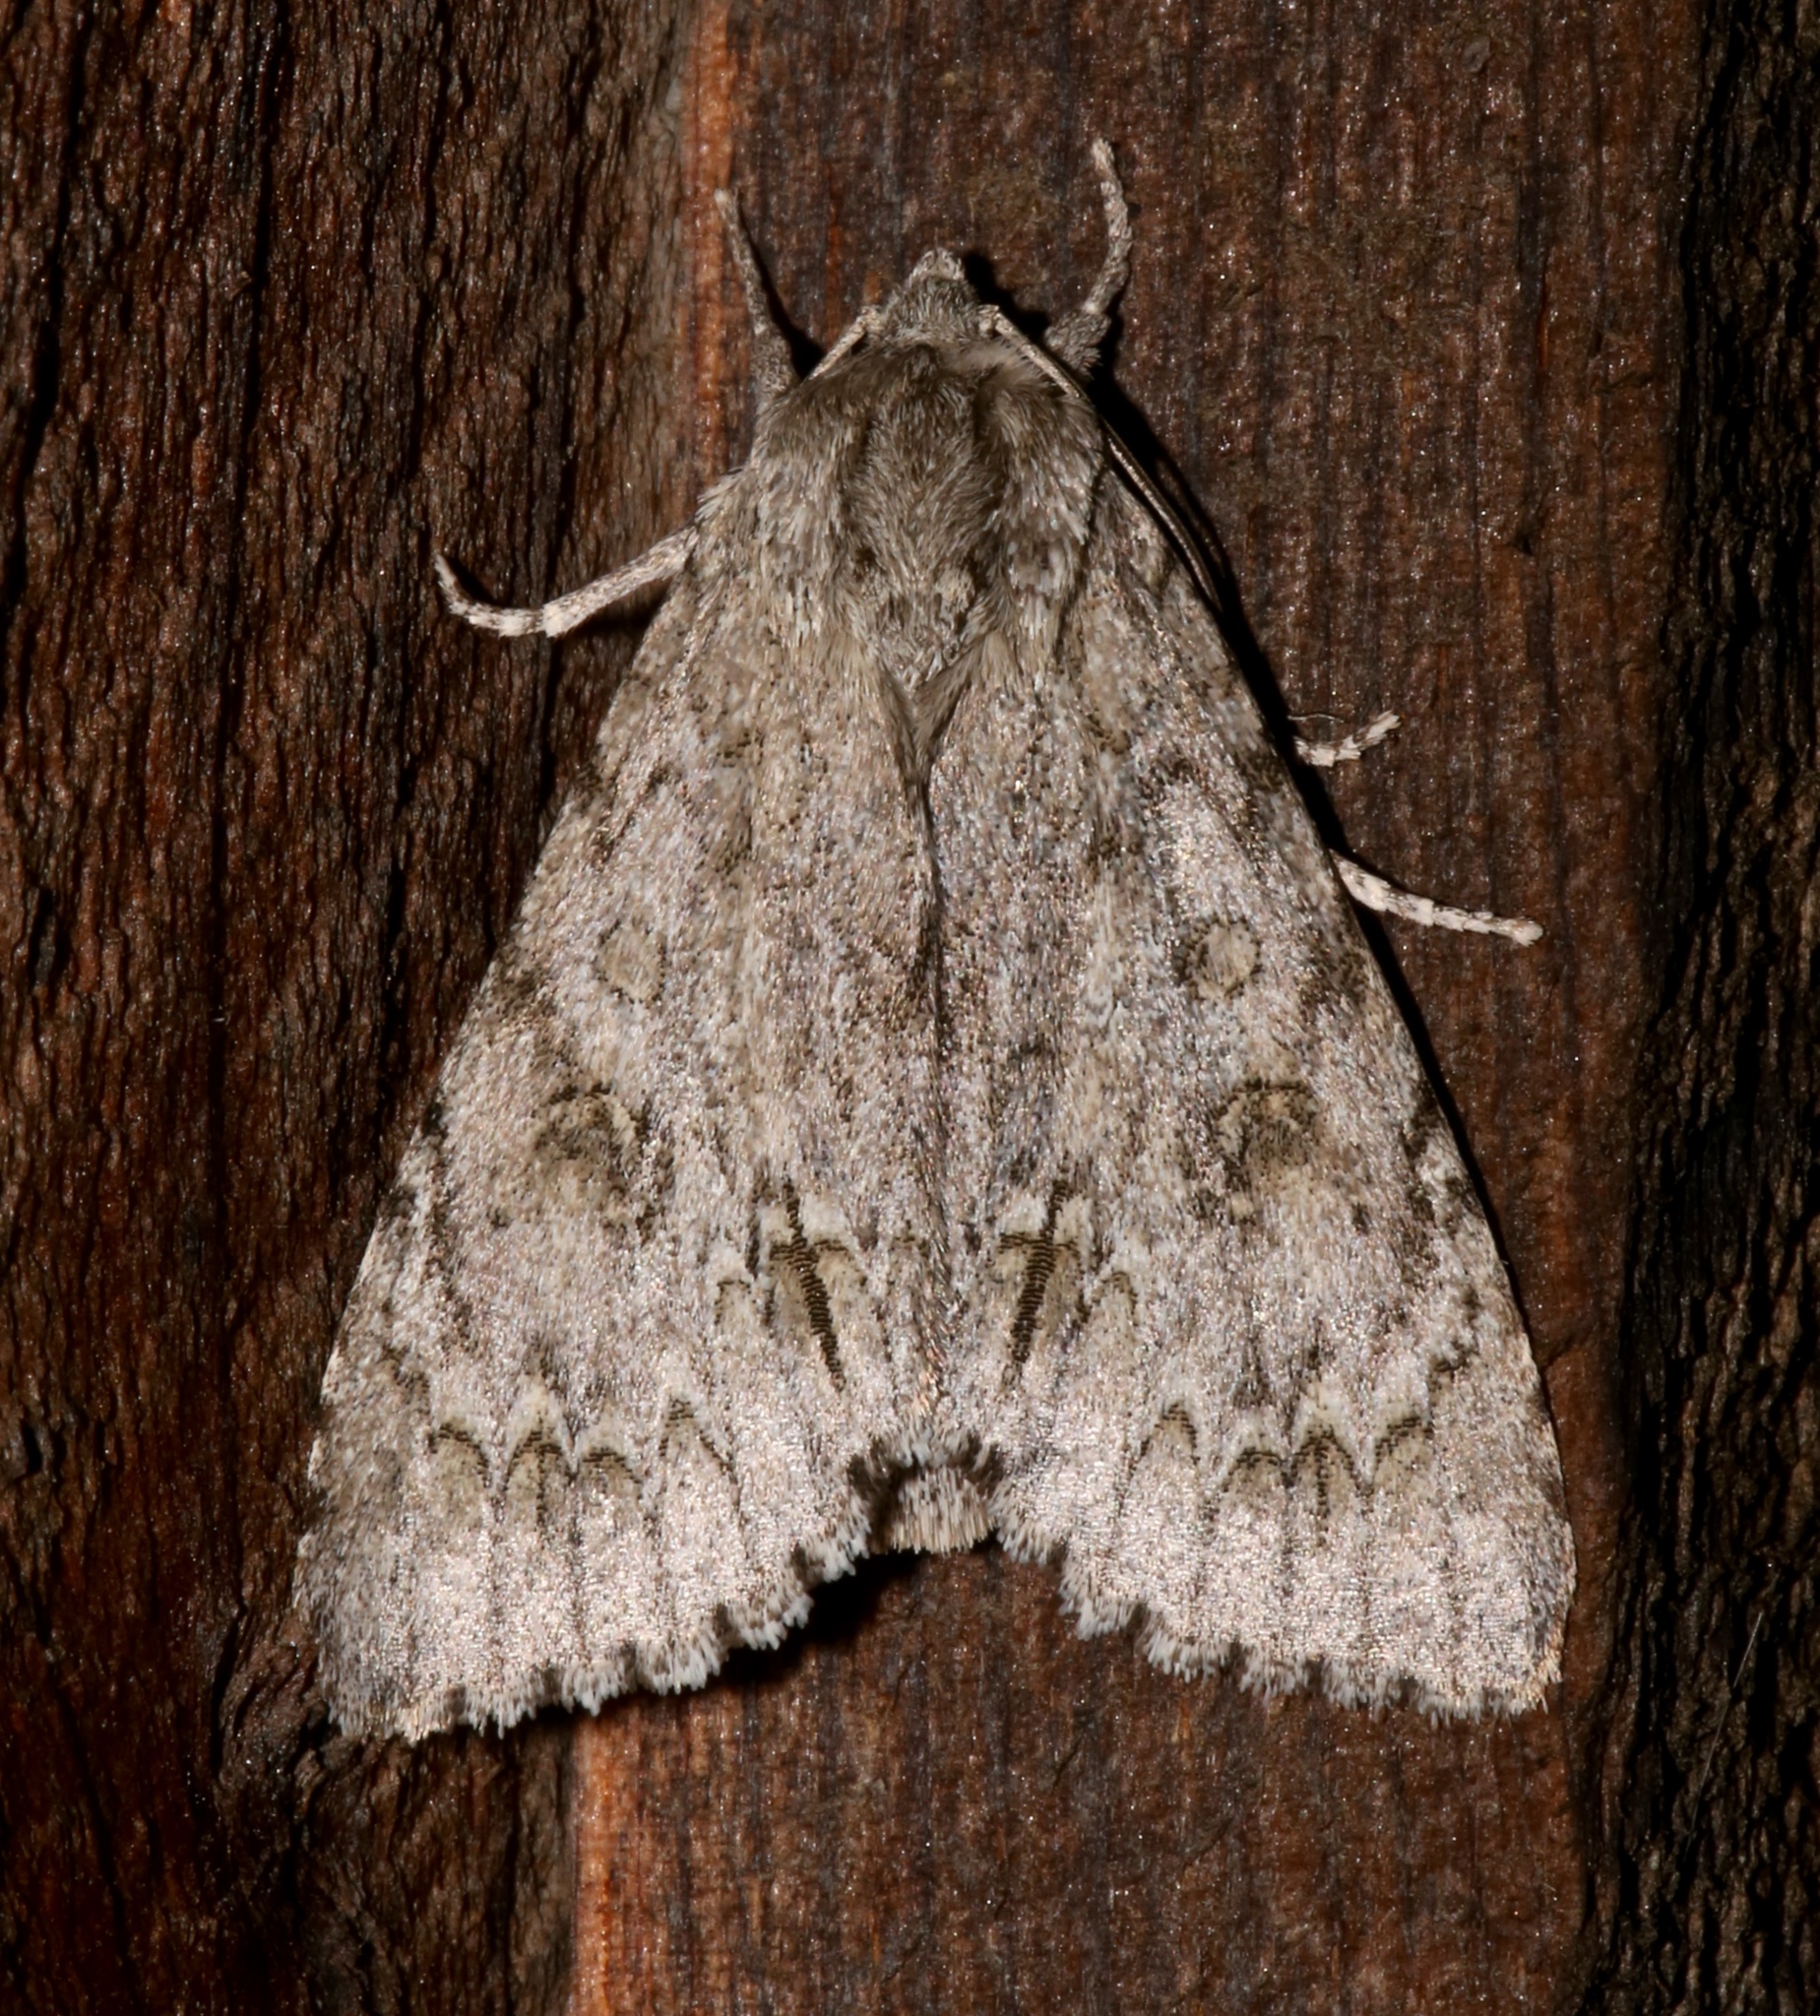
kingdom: Animalia
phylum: Arthropoda
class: Insecta
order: Lepidoptera
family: Noctuidae
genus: Acronicta
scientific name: Acronicta americana
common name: American dagger
